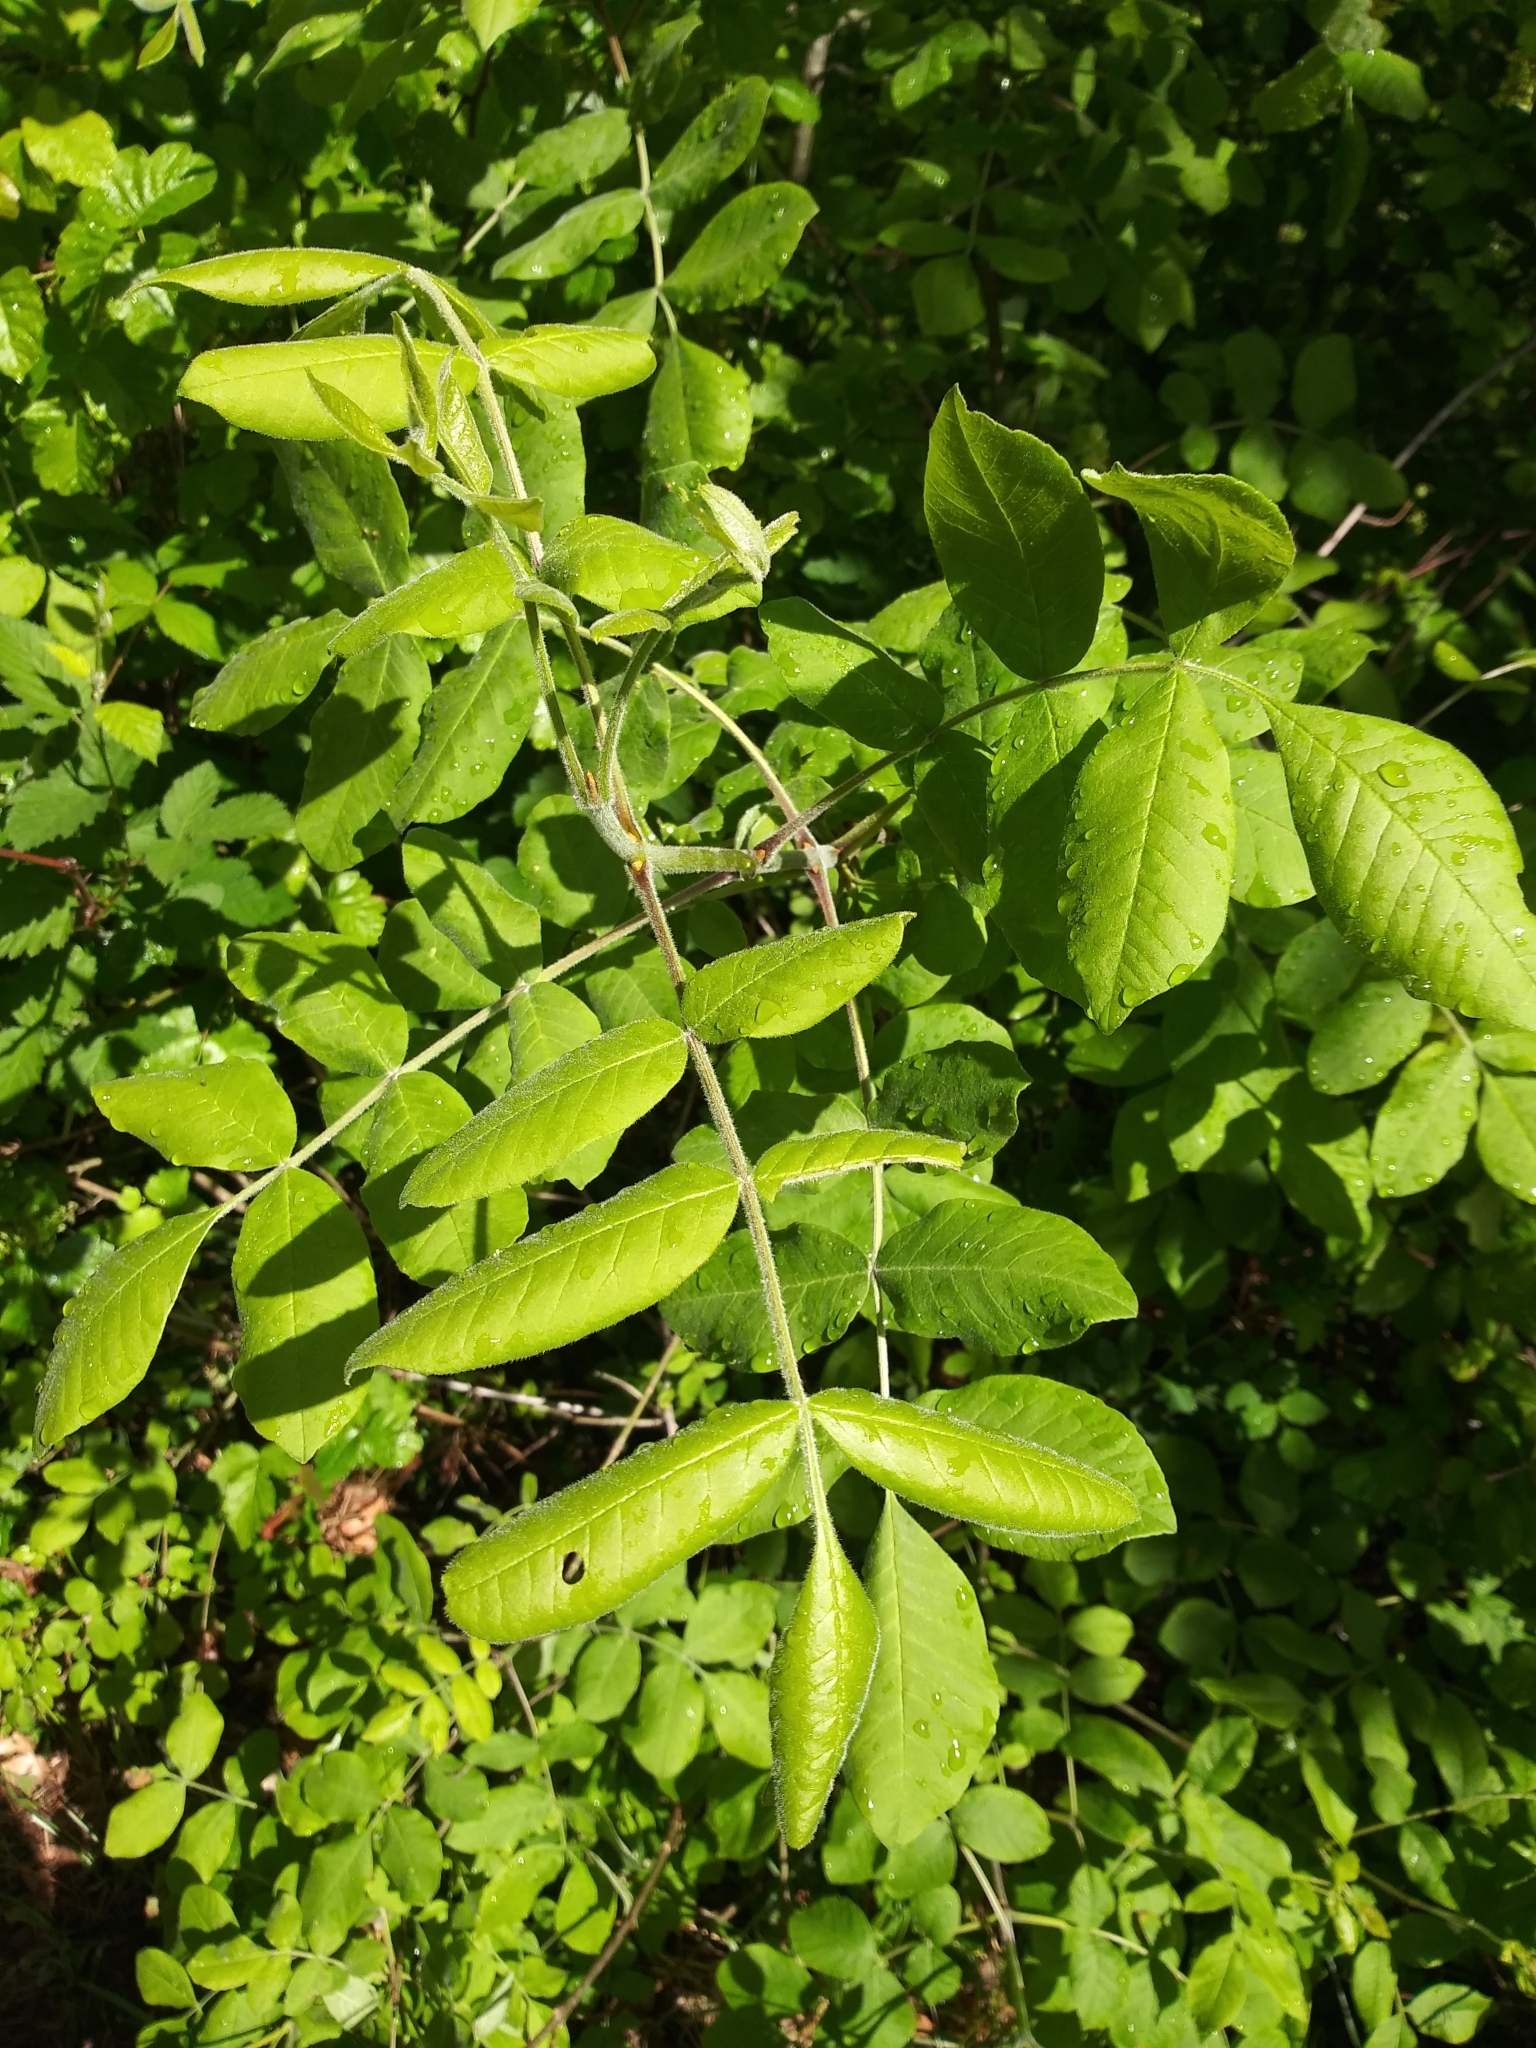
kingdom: Plantae
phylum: Tracheophyta
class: Magnoliopsida
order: Lamiales
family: Oleaceae
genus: Fraxinus
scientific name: Fraxinus latifolia
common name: Oregon ash
